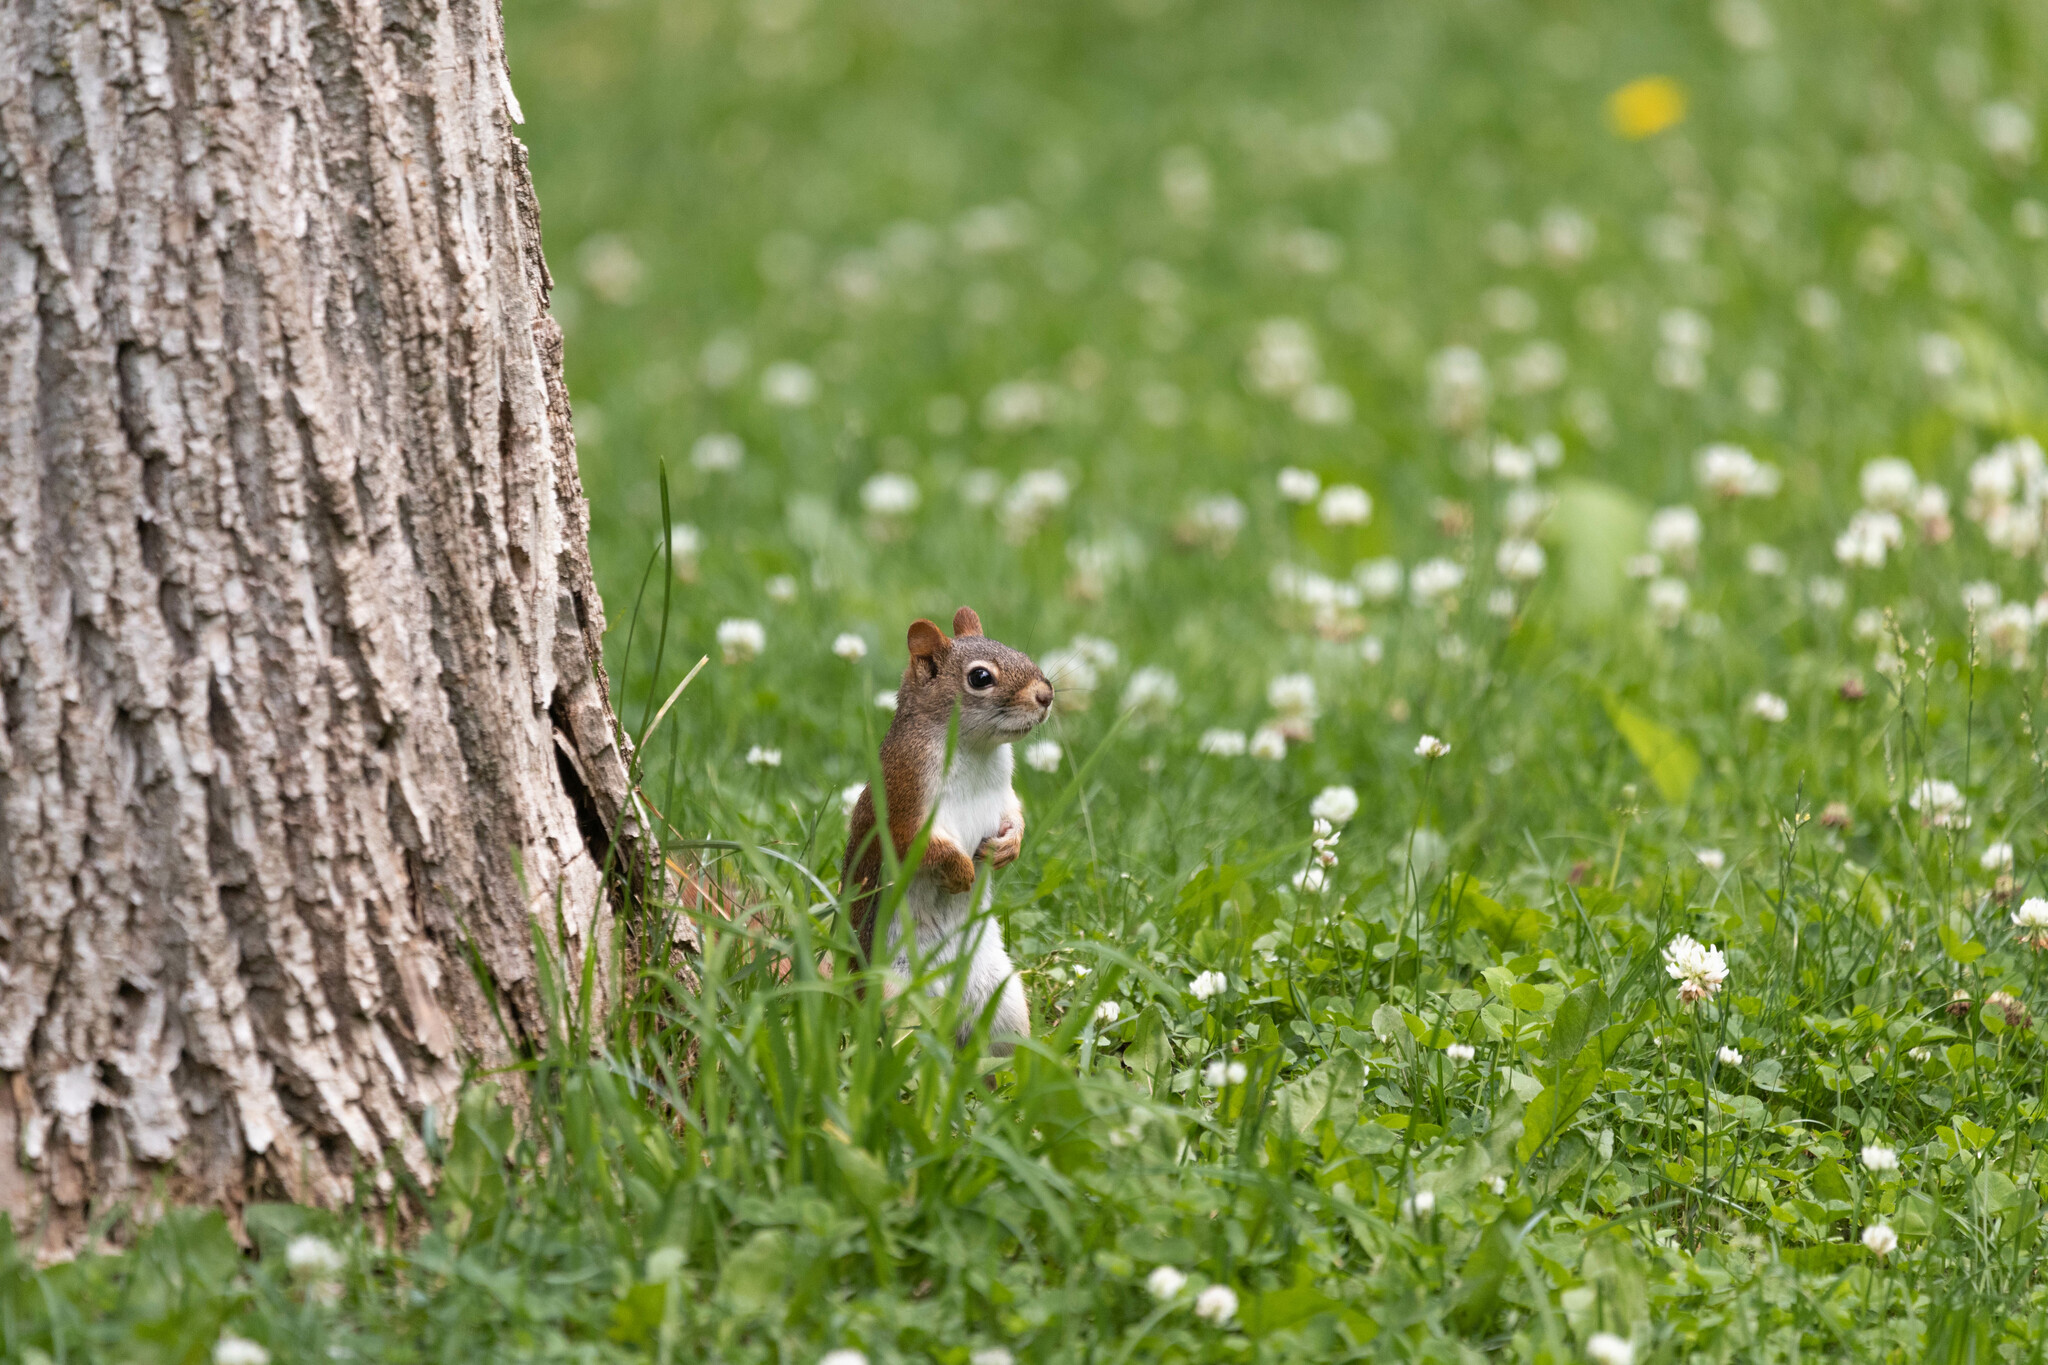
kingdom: Animalia
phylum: Chordata
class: Mammalia
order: Rodentia
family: Sciuridae
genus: Tamiasciurus
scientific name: Tamiasciurus hudsonicus
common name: Red squirrel
